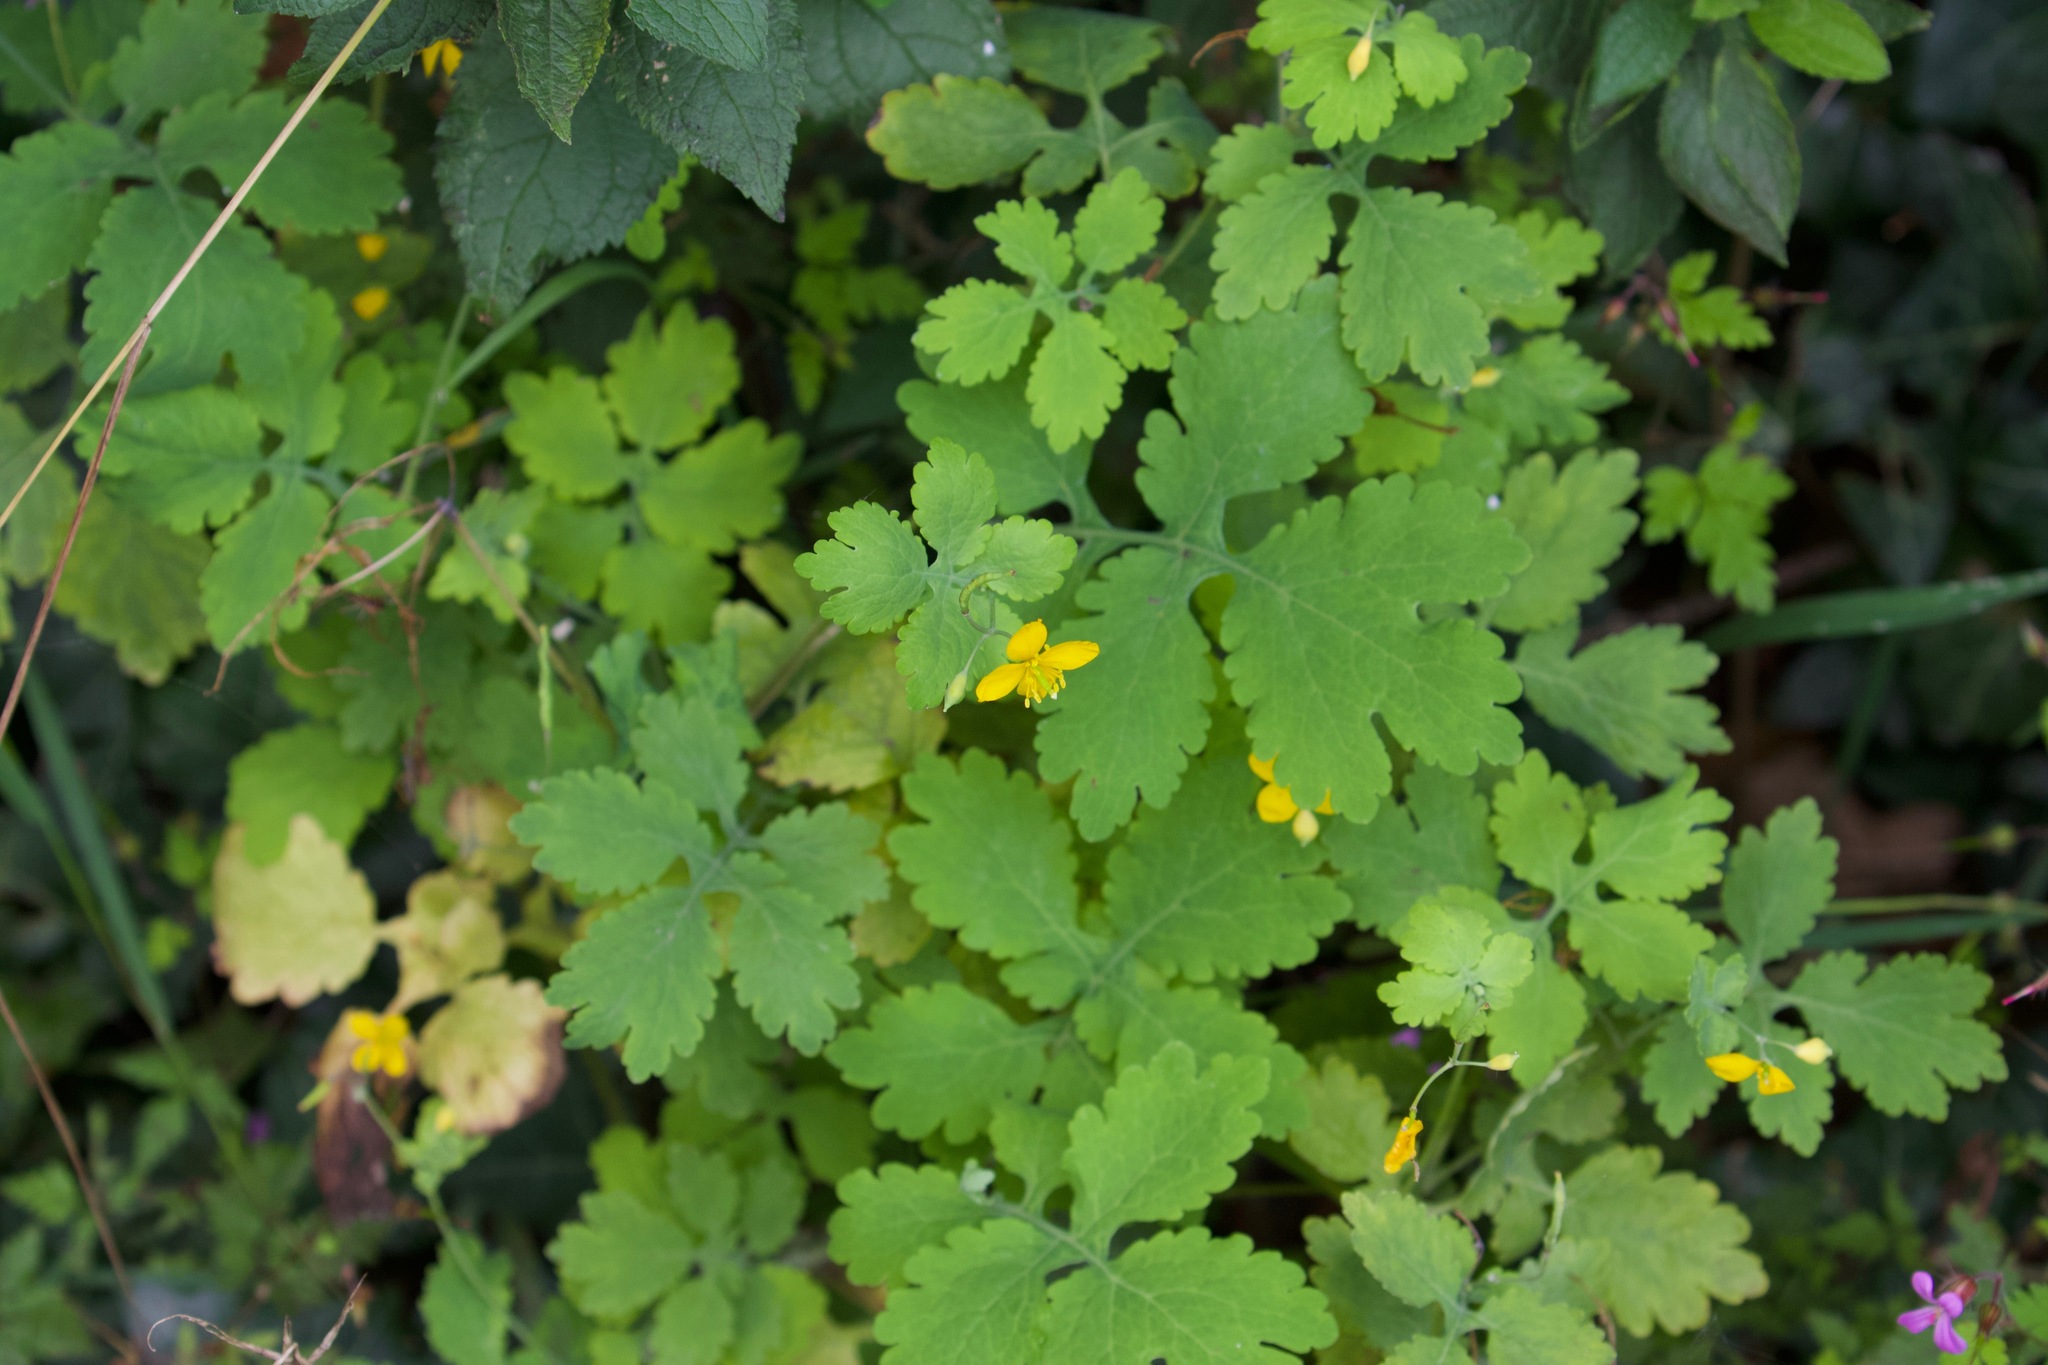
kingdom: Plantae
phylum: Tracheophyta
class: Magnoliopsida
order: Ranunculales
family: Papaveraceae
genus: Chelidonium
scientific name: Chelidonium majus
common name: Greater celandine
